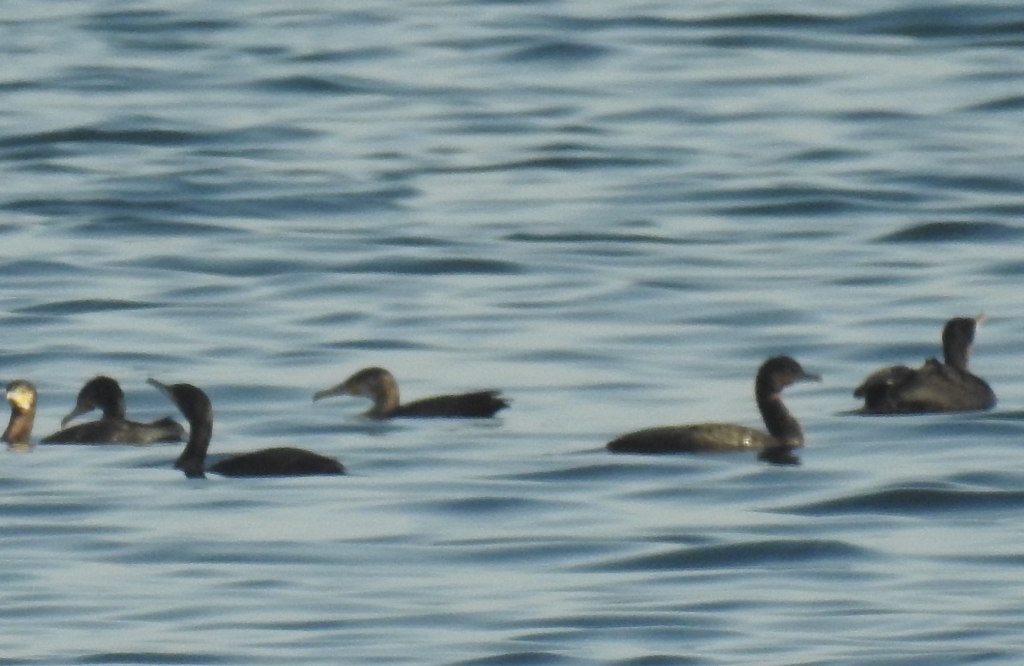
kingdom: Animalia
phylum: Chordata
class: Aves
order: Suliformes
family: Phalacrocoracidae
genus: Phalacrocorax
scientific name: Phalacrocorax carbo
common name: Great cormorant
